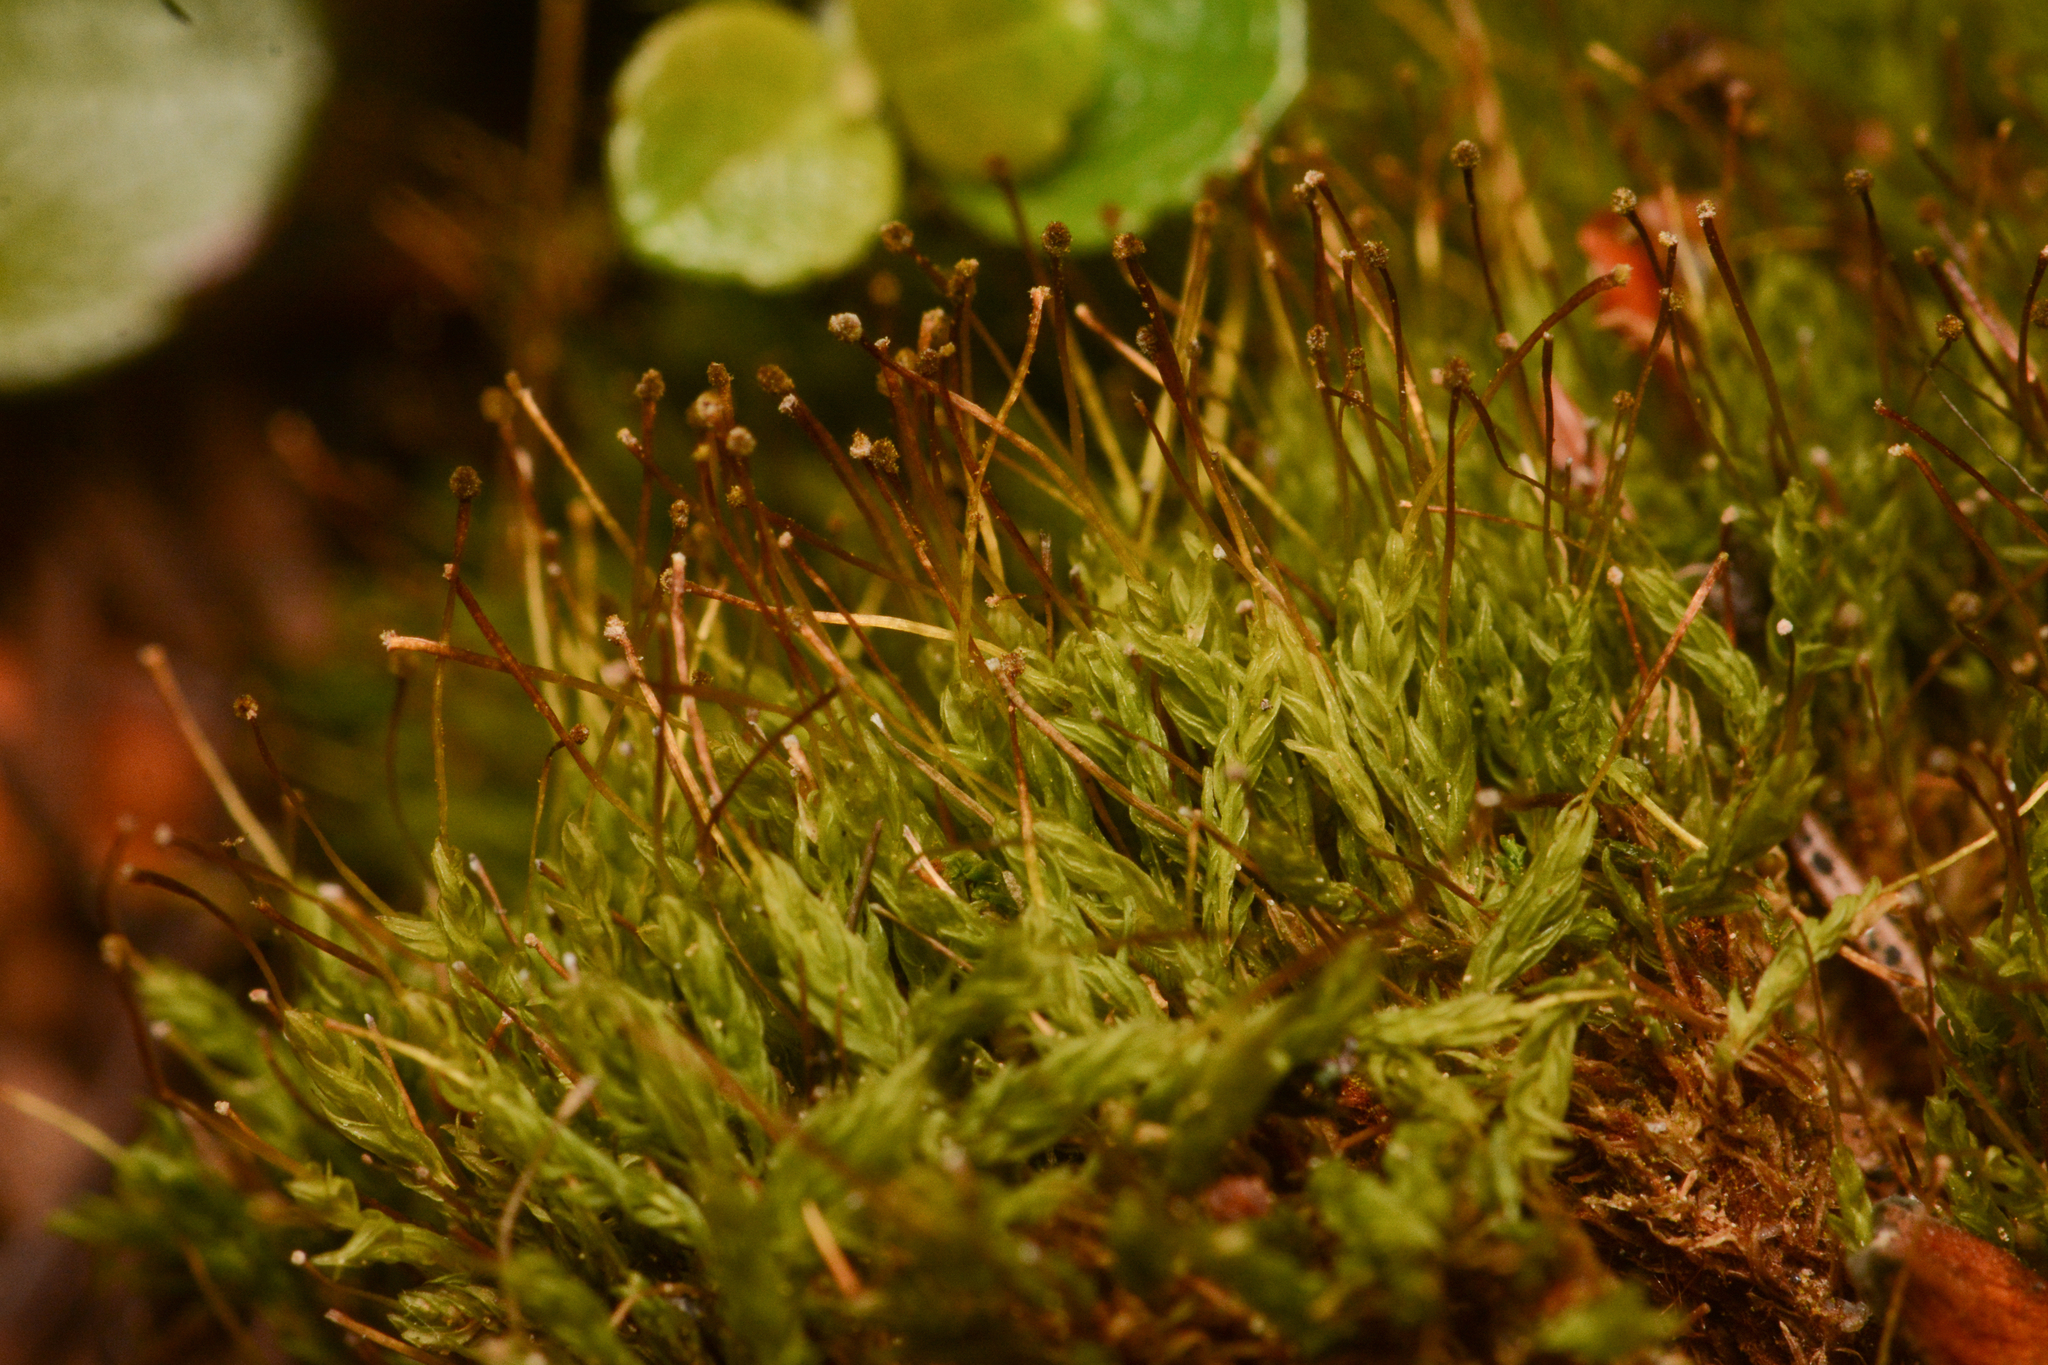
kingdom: Plantae
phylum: Bryophyta
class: Bryopsida
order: Aulacomniales
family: Aulacomniaceae
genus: Aulacomnium
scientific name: Aulacomnium androgynum
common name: Little groove moss
